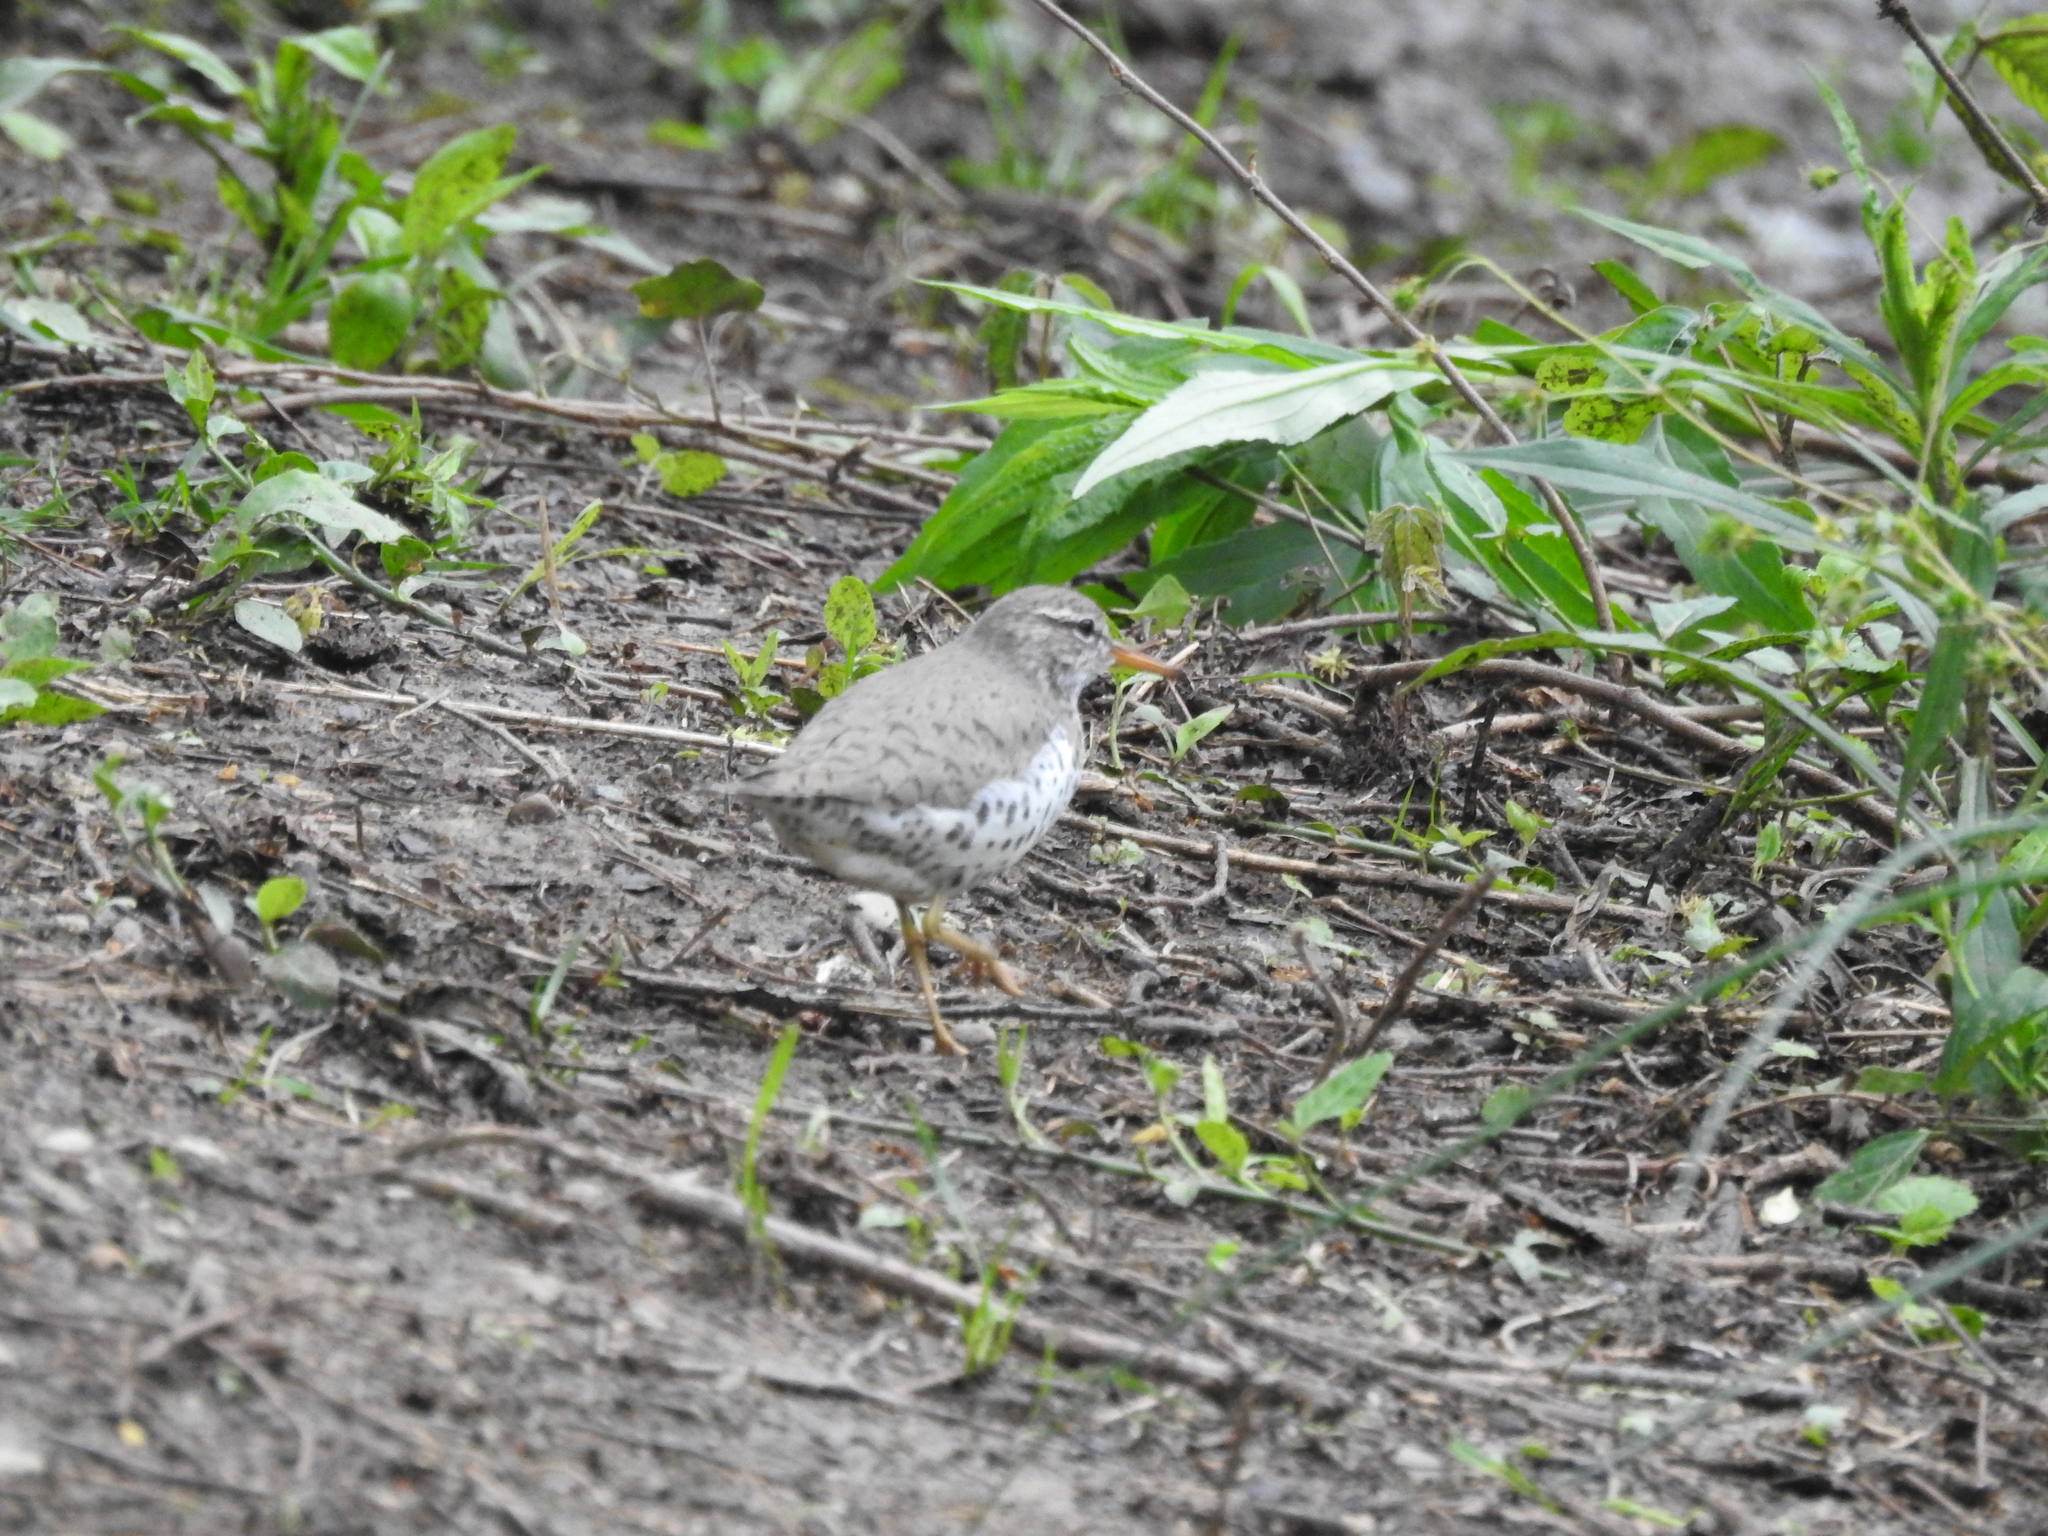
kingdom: Animalia
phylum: Chordata
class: Aves
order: Charadriiformes
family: Scolopacidae
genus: Actitis
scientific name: Actitis macularius
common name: Spotted sandpiper
